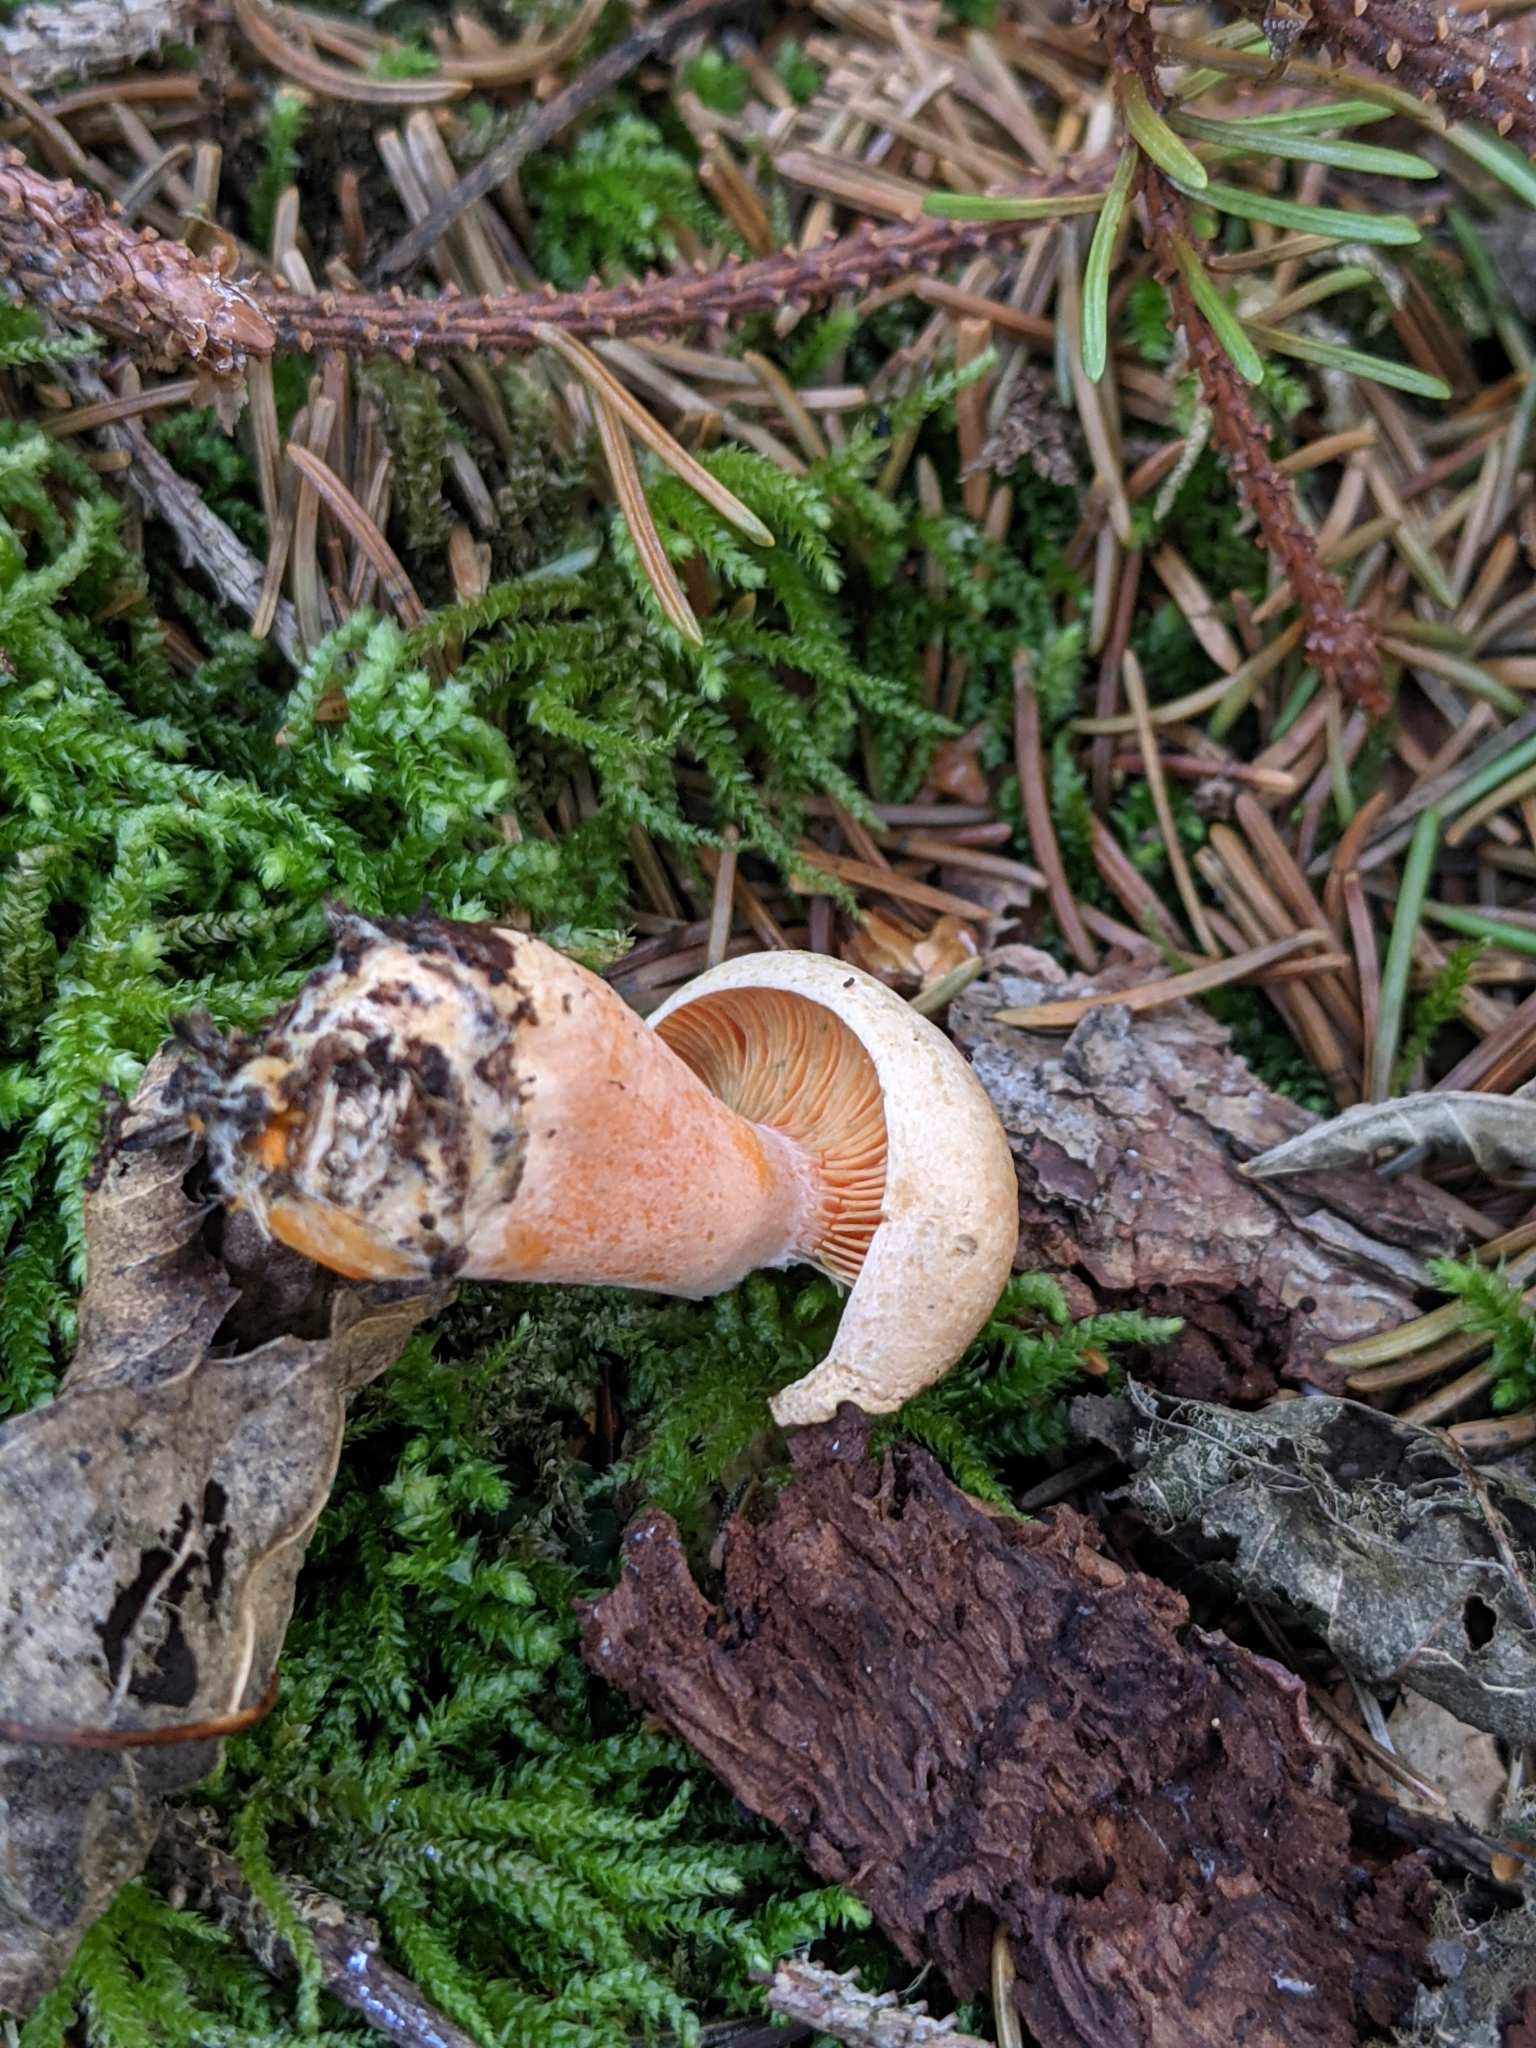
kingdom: Fungi
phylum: Basidiomycota
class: Agaricomycetes
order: Russulales
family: Russulaceae
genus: Lactarius
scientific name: Lactarius deterrimus
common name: False saffron milkcap
